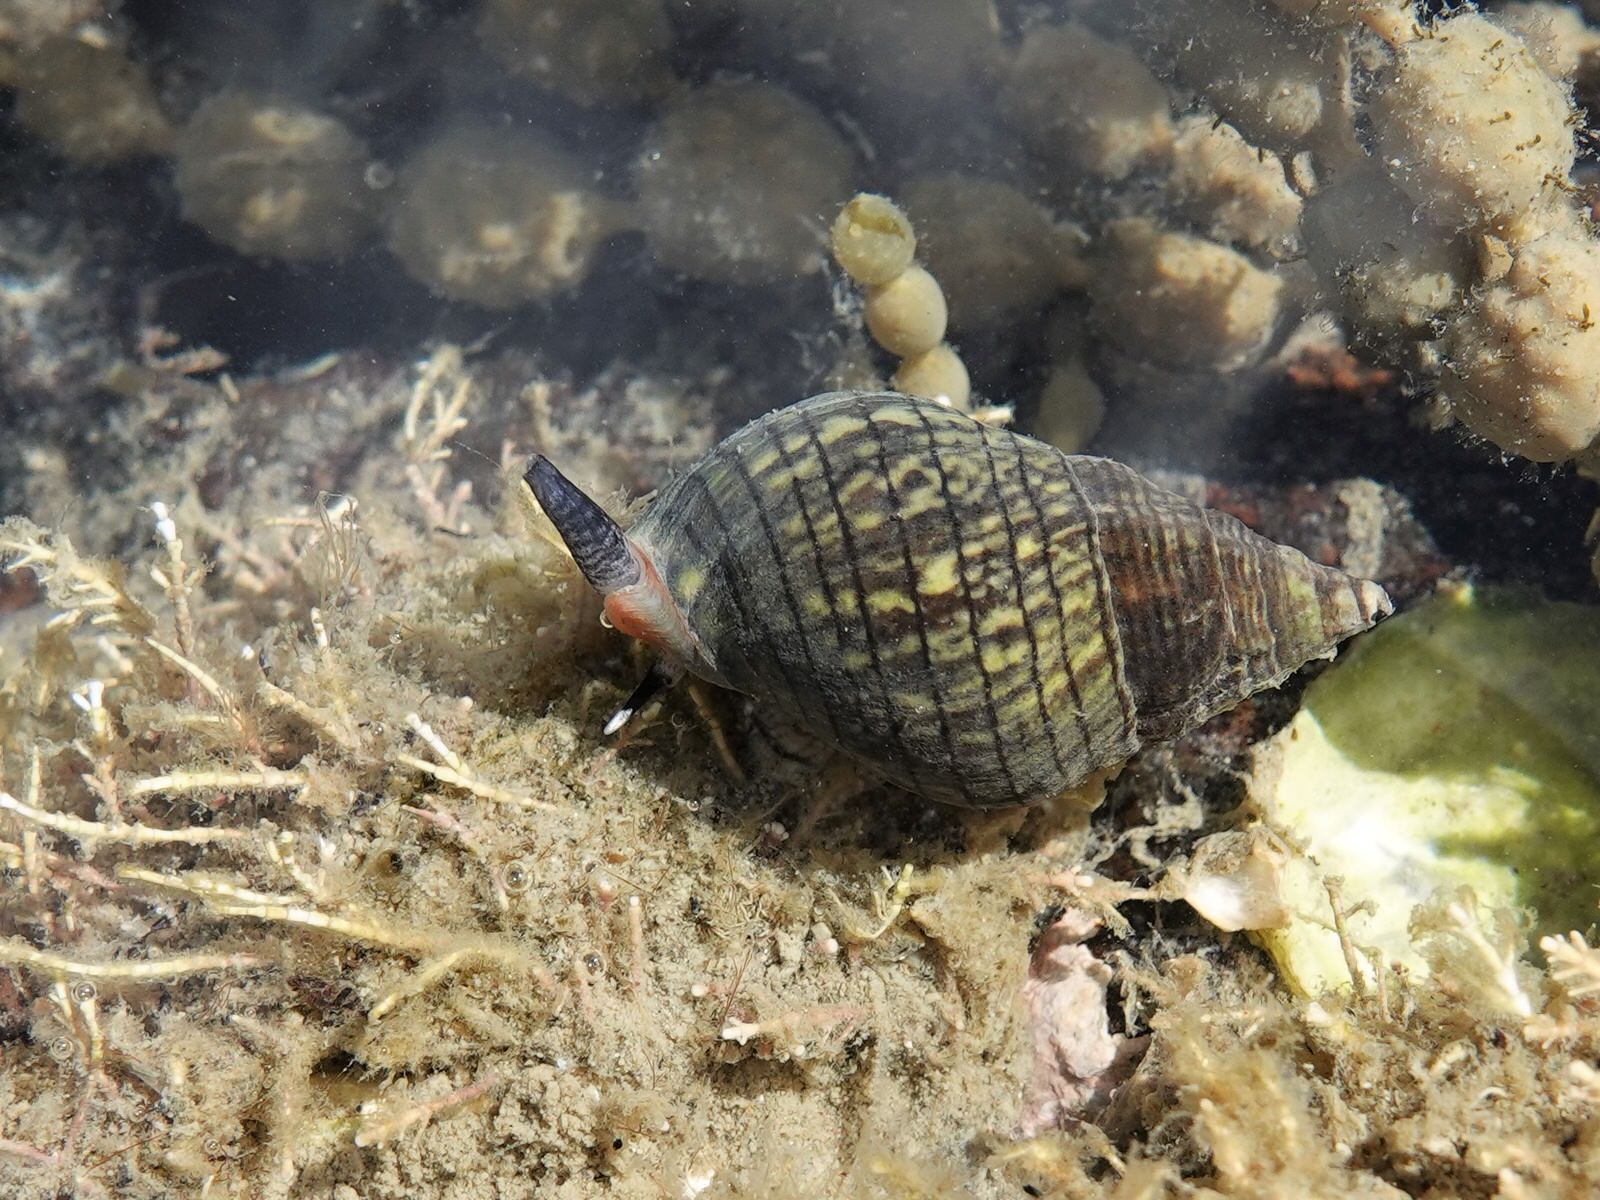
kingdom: Animalia
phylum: Mollusca
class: Gastropoda
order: Neogastropoda
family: Cominellidae
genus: Cominella
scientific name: Cominella virgata
